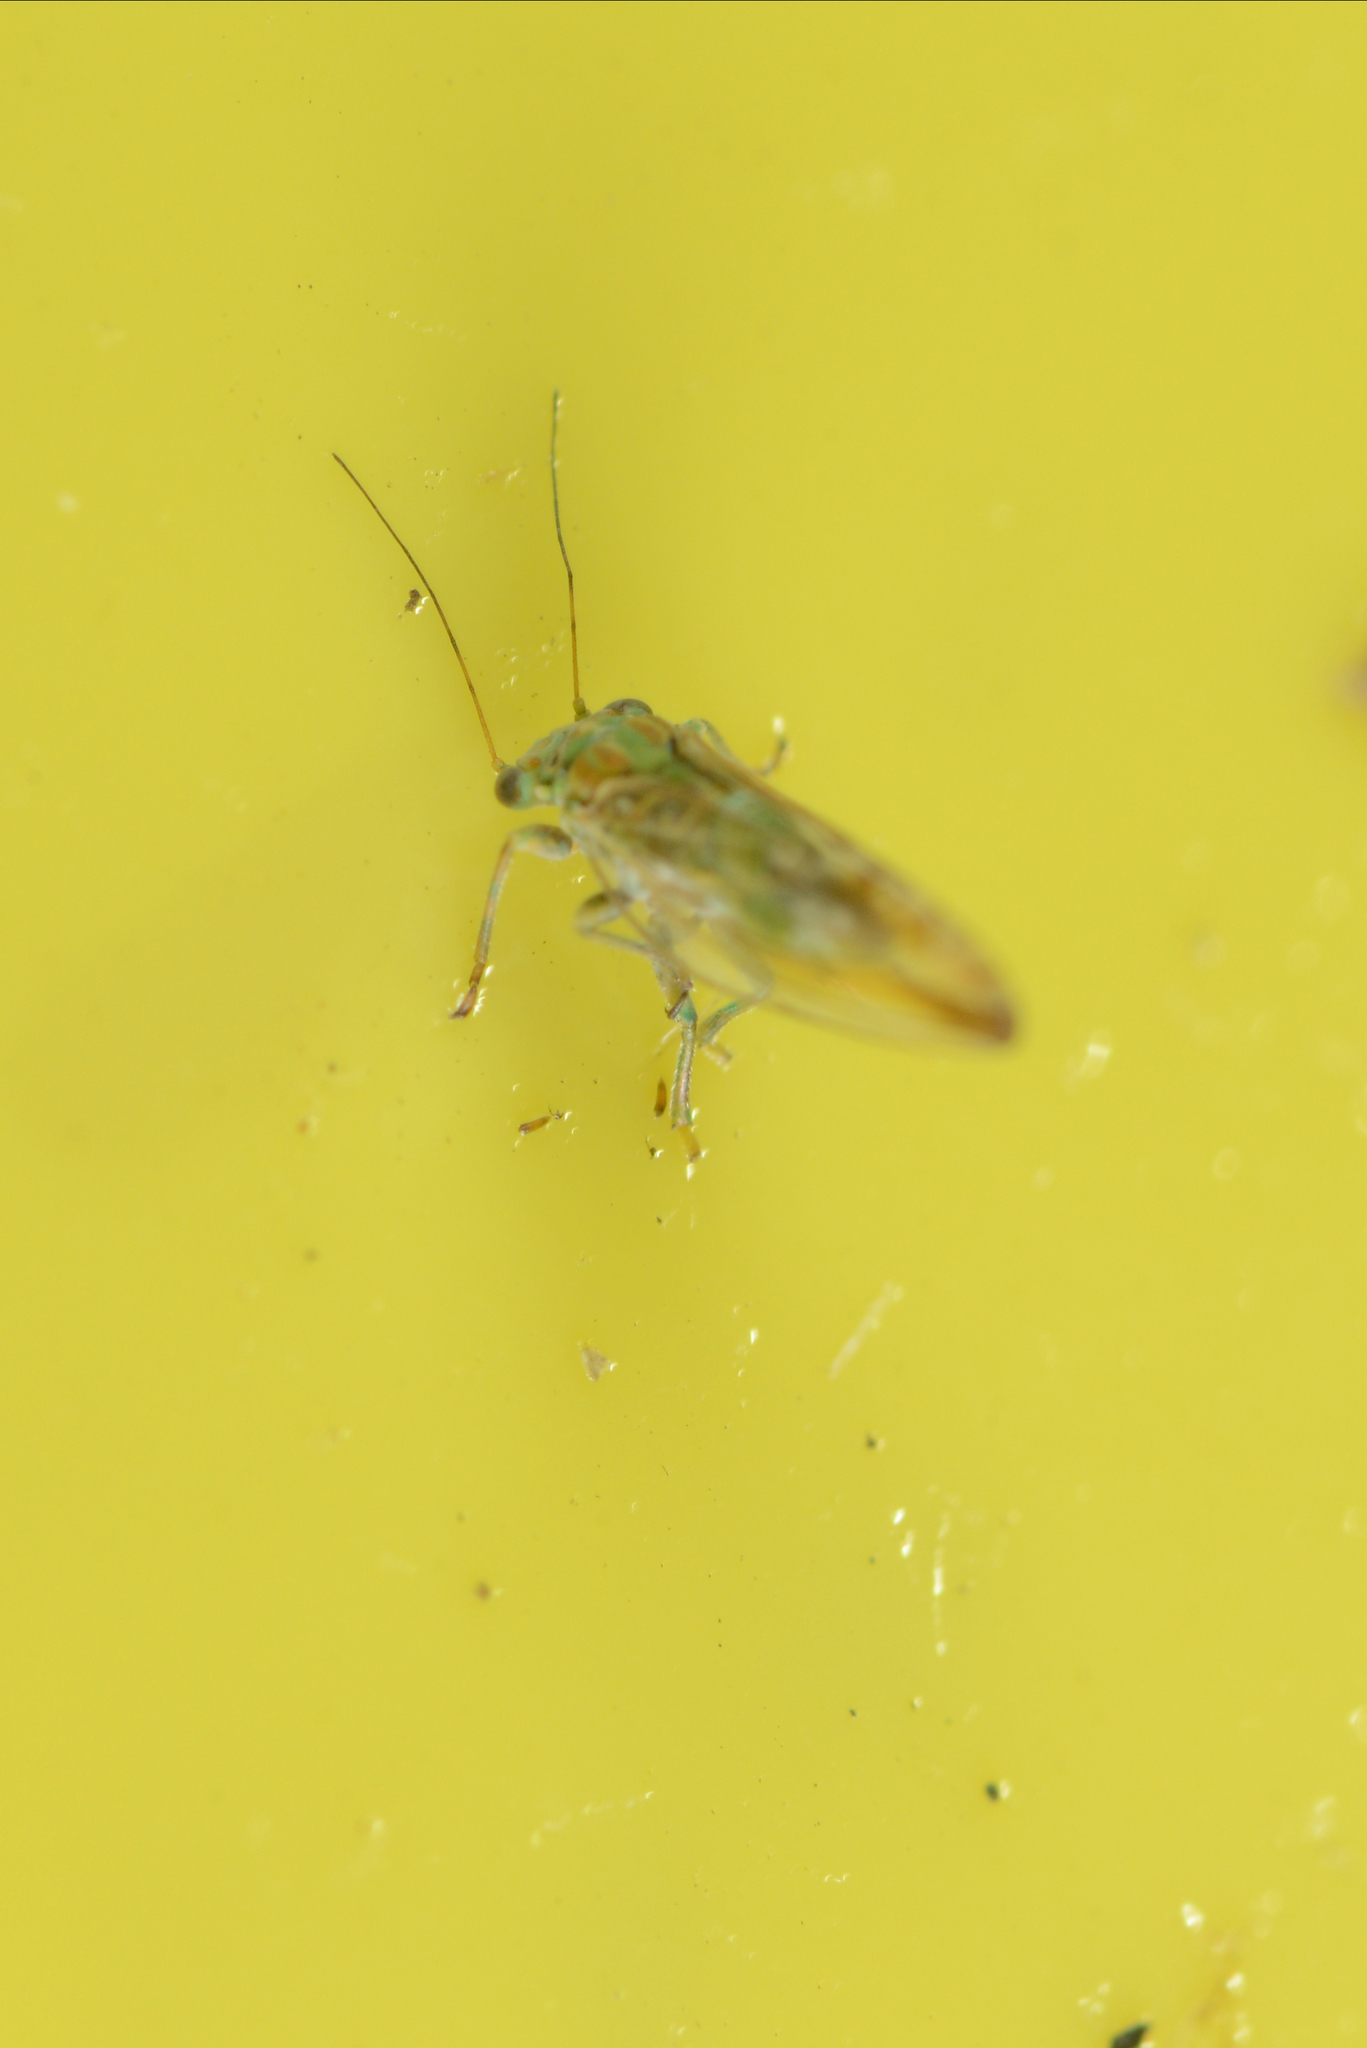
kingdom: Animalia
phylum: Arthropoda
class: Insecta
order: Hemiptera
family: Psyllidae
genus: Arytaina
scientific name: Arytaina genistae
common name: Psyllid
